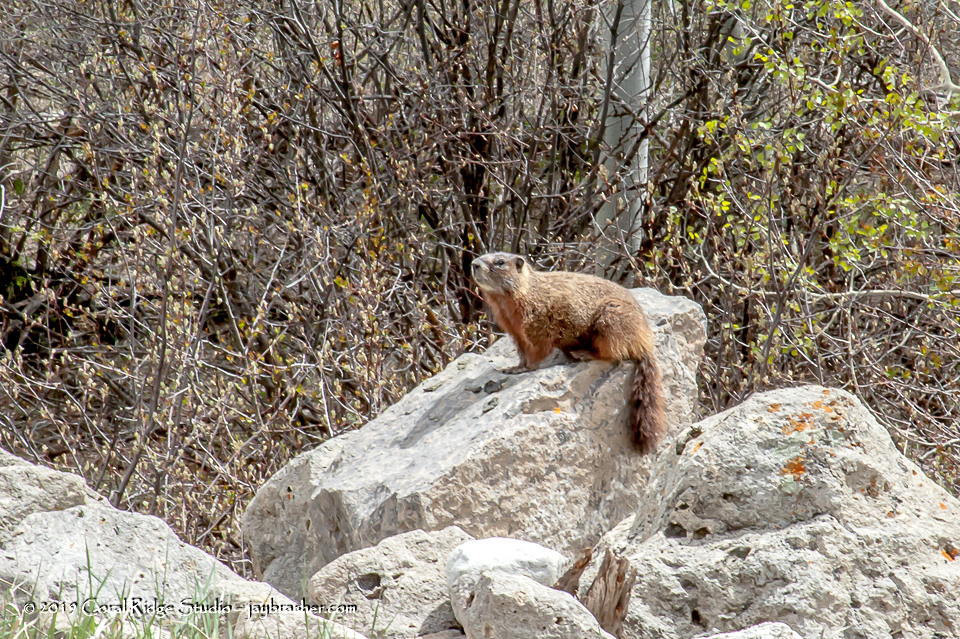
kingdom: Animalia
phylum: Chordata
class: Mammalia
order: Rodentia
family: Sciuridae
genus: Marmota
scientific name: Marmota flaviventris
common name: Yellow-bellied marmot
